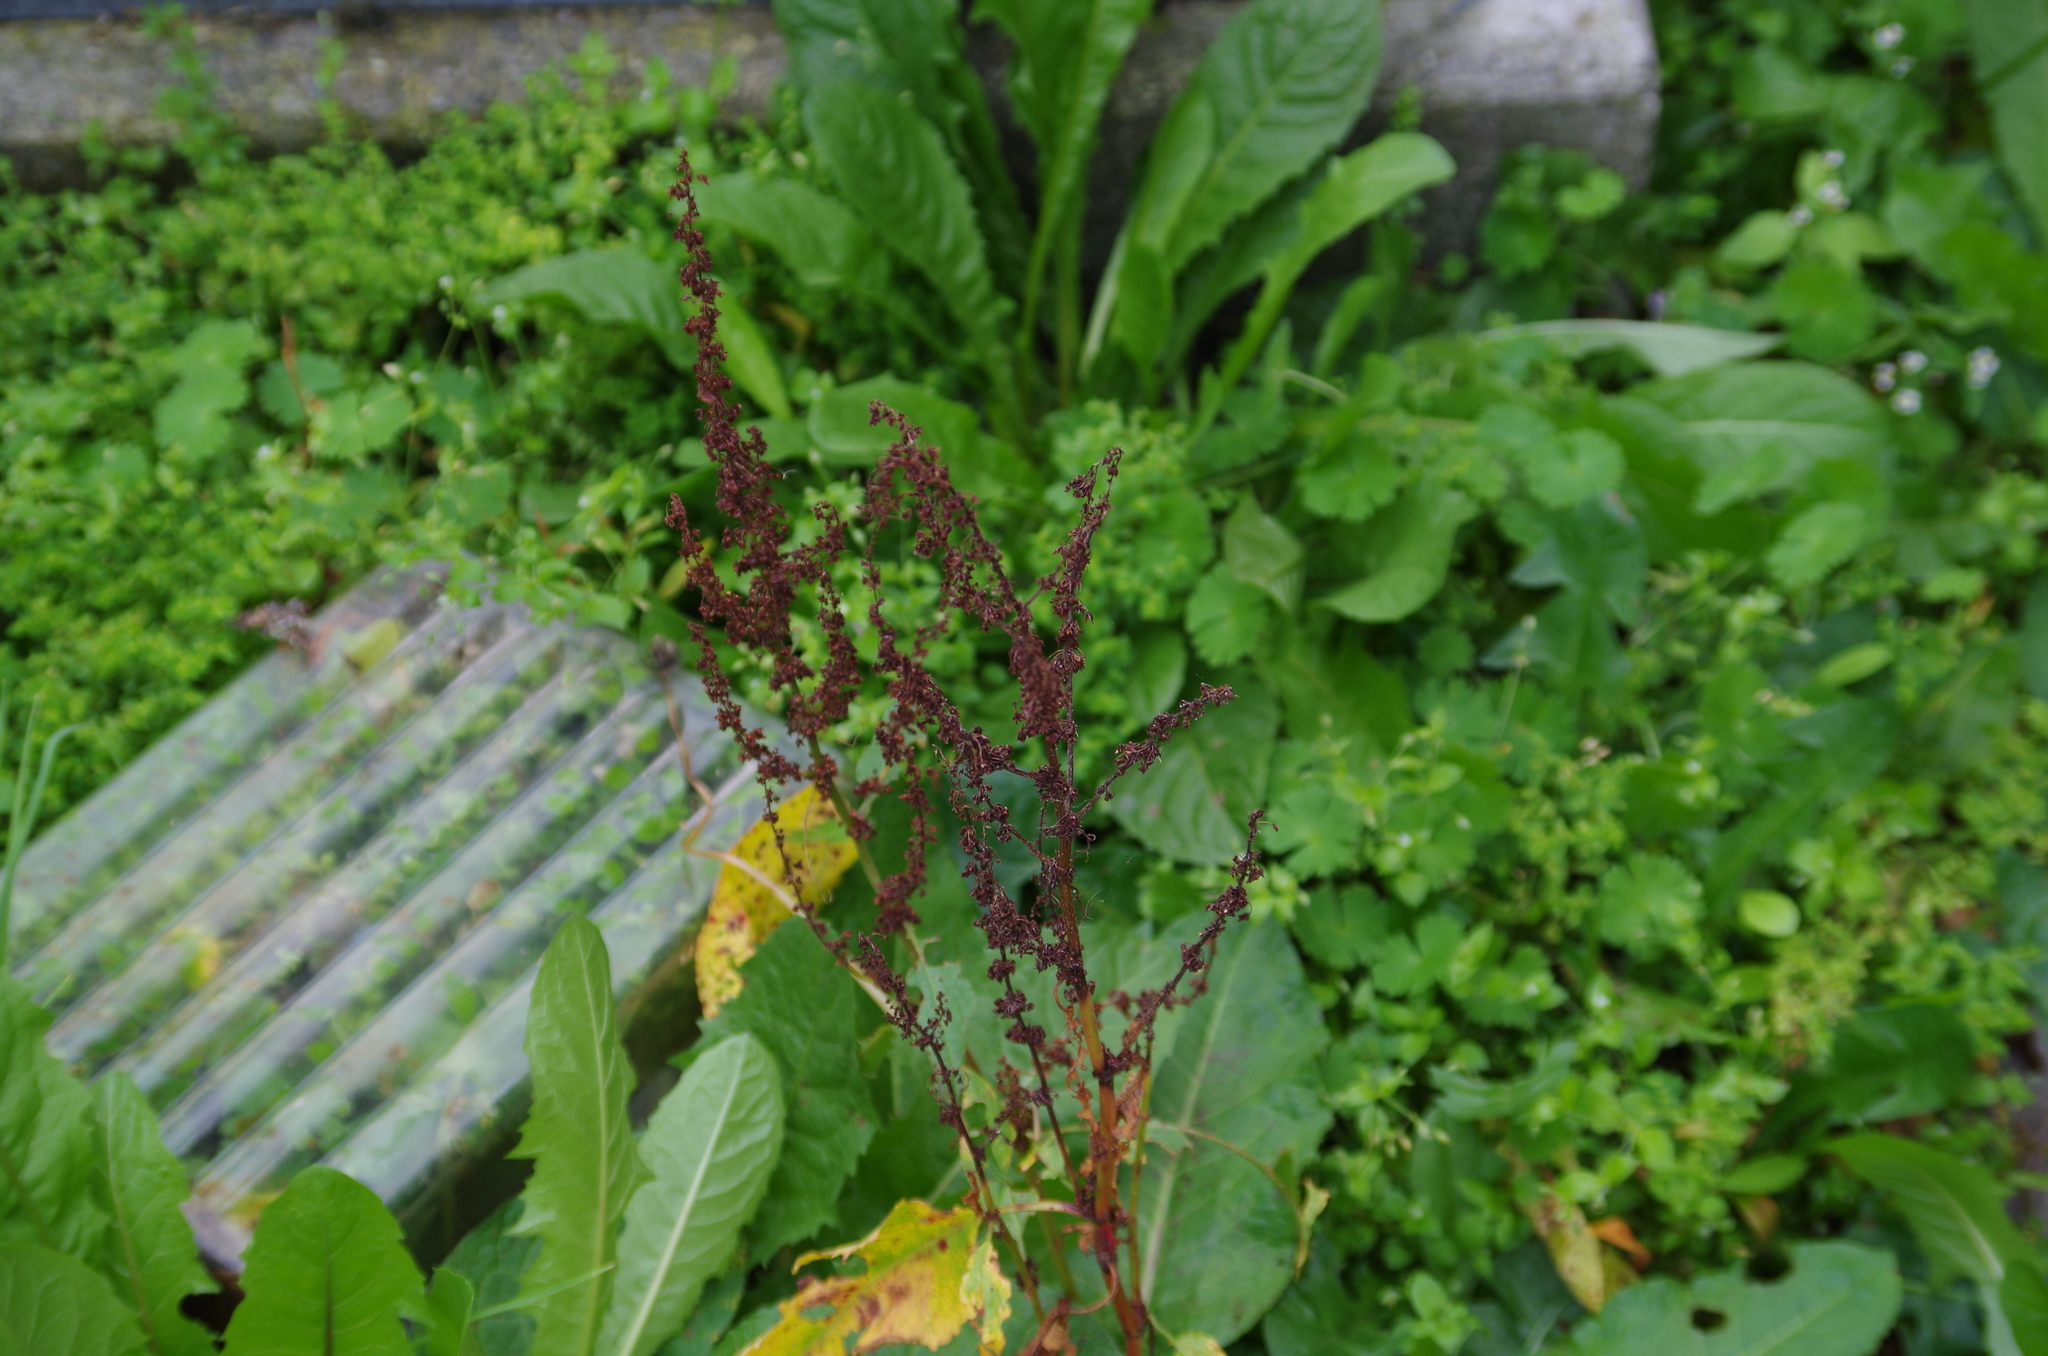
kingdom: Plantae
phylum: Tracheophyta
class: Magnoliopsida
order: Caryophyllales
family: Polygonaceae
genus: Rumex
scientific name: Rumex obtusifolius
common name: Bitter dock
